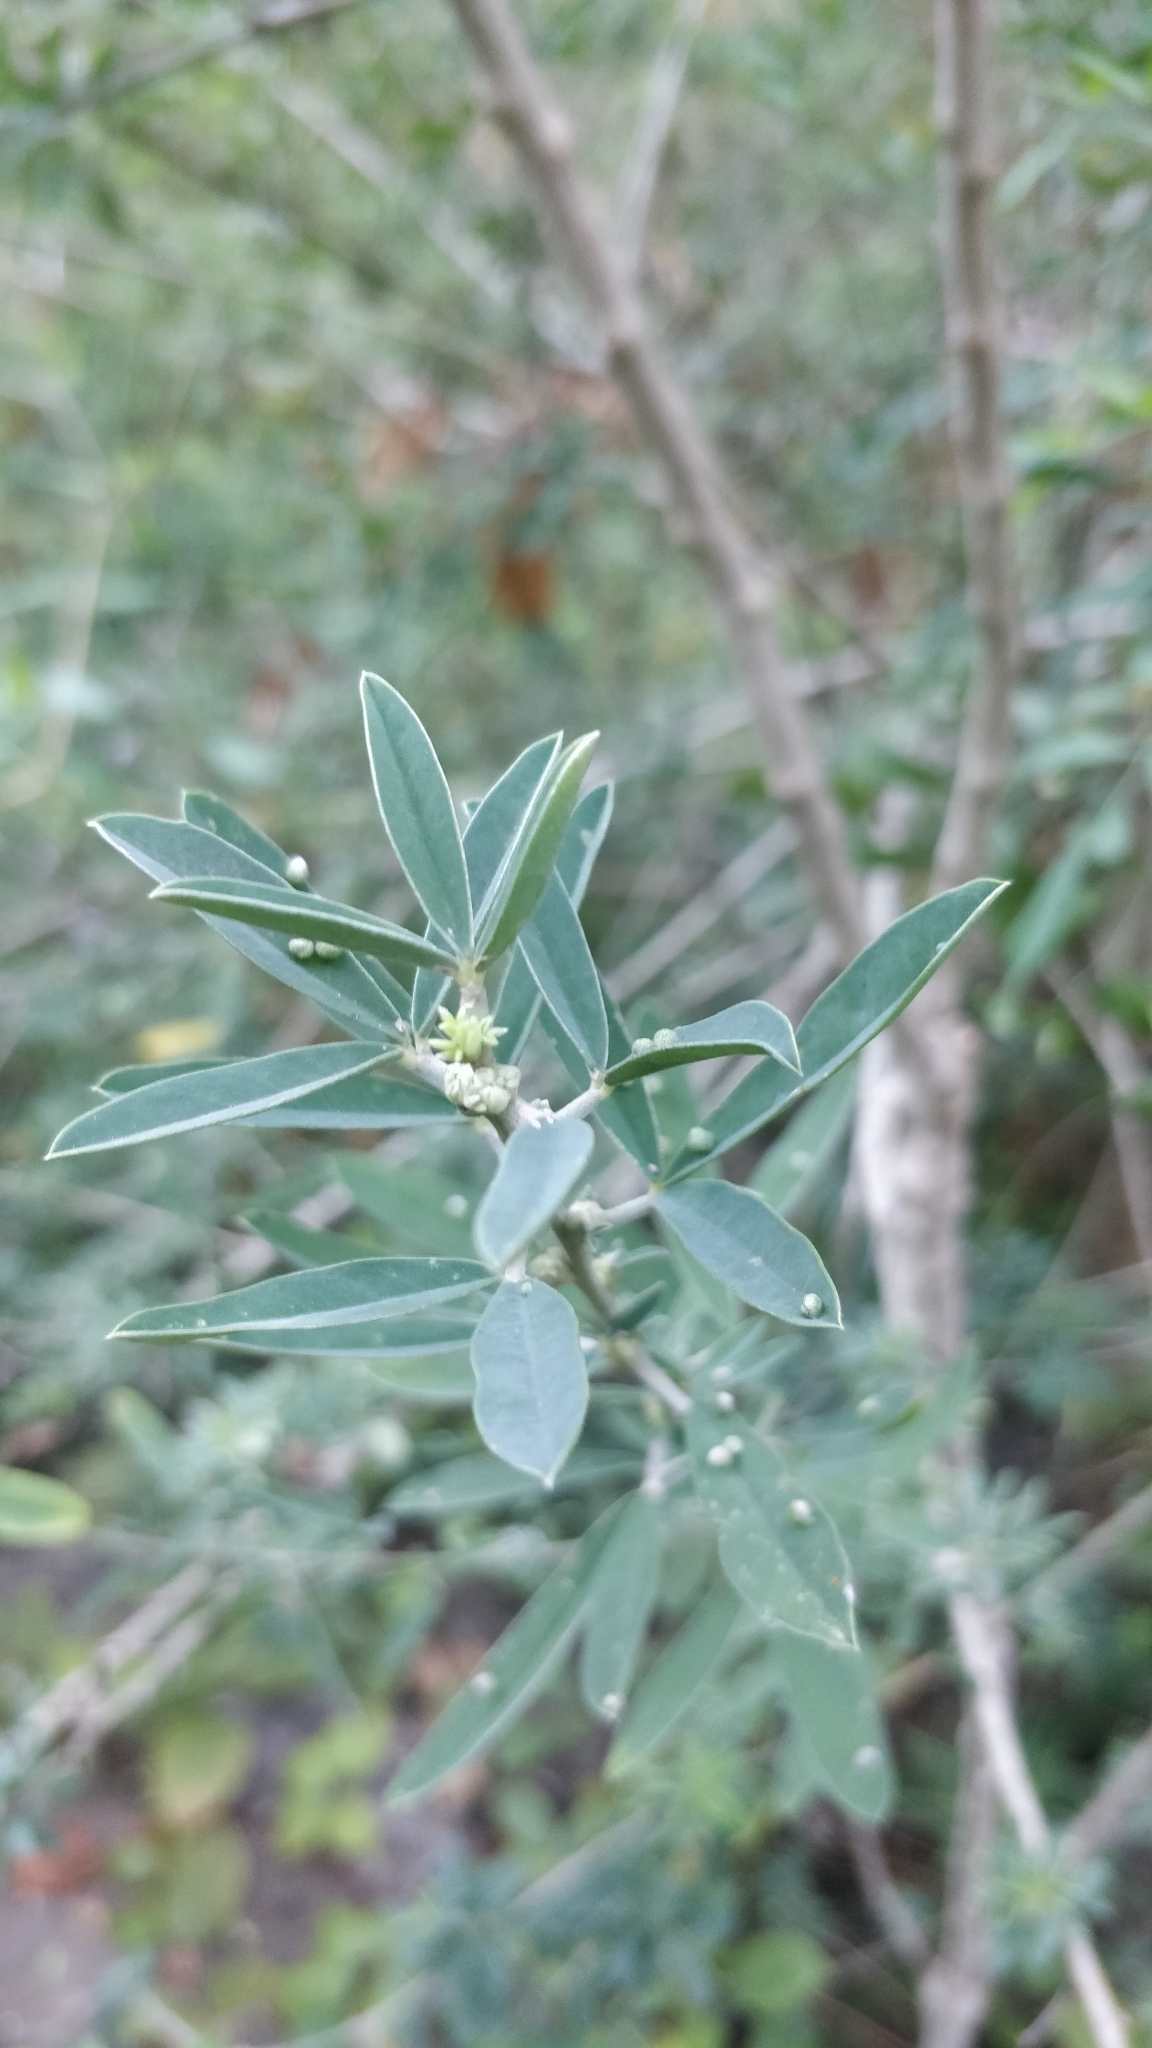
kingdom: Plantae
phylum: Tracheophyta
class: Magnoliopsida
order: Fabales
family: Fabaceae
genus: Chamaecytisus
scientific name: Chamaecytisus prolifer
